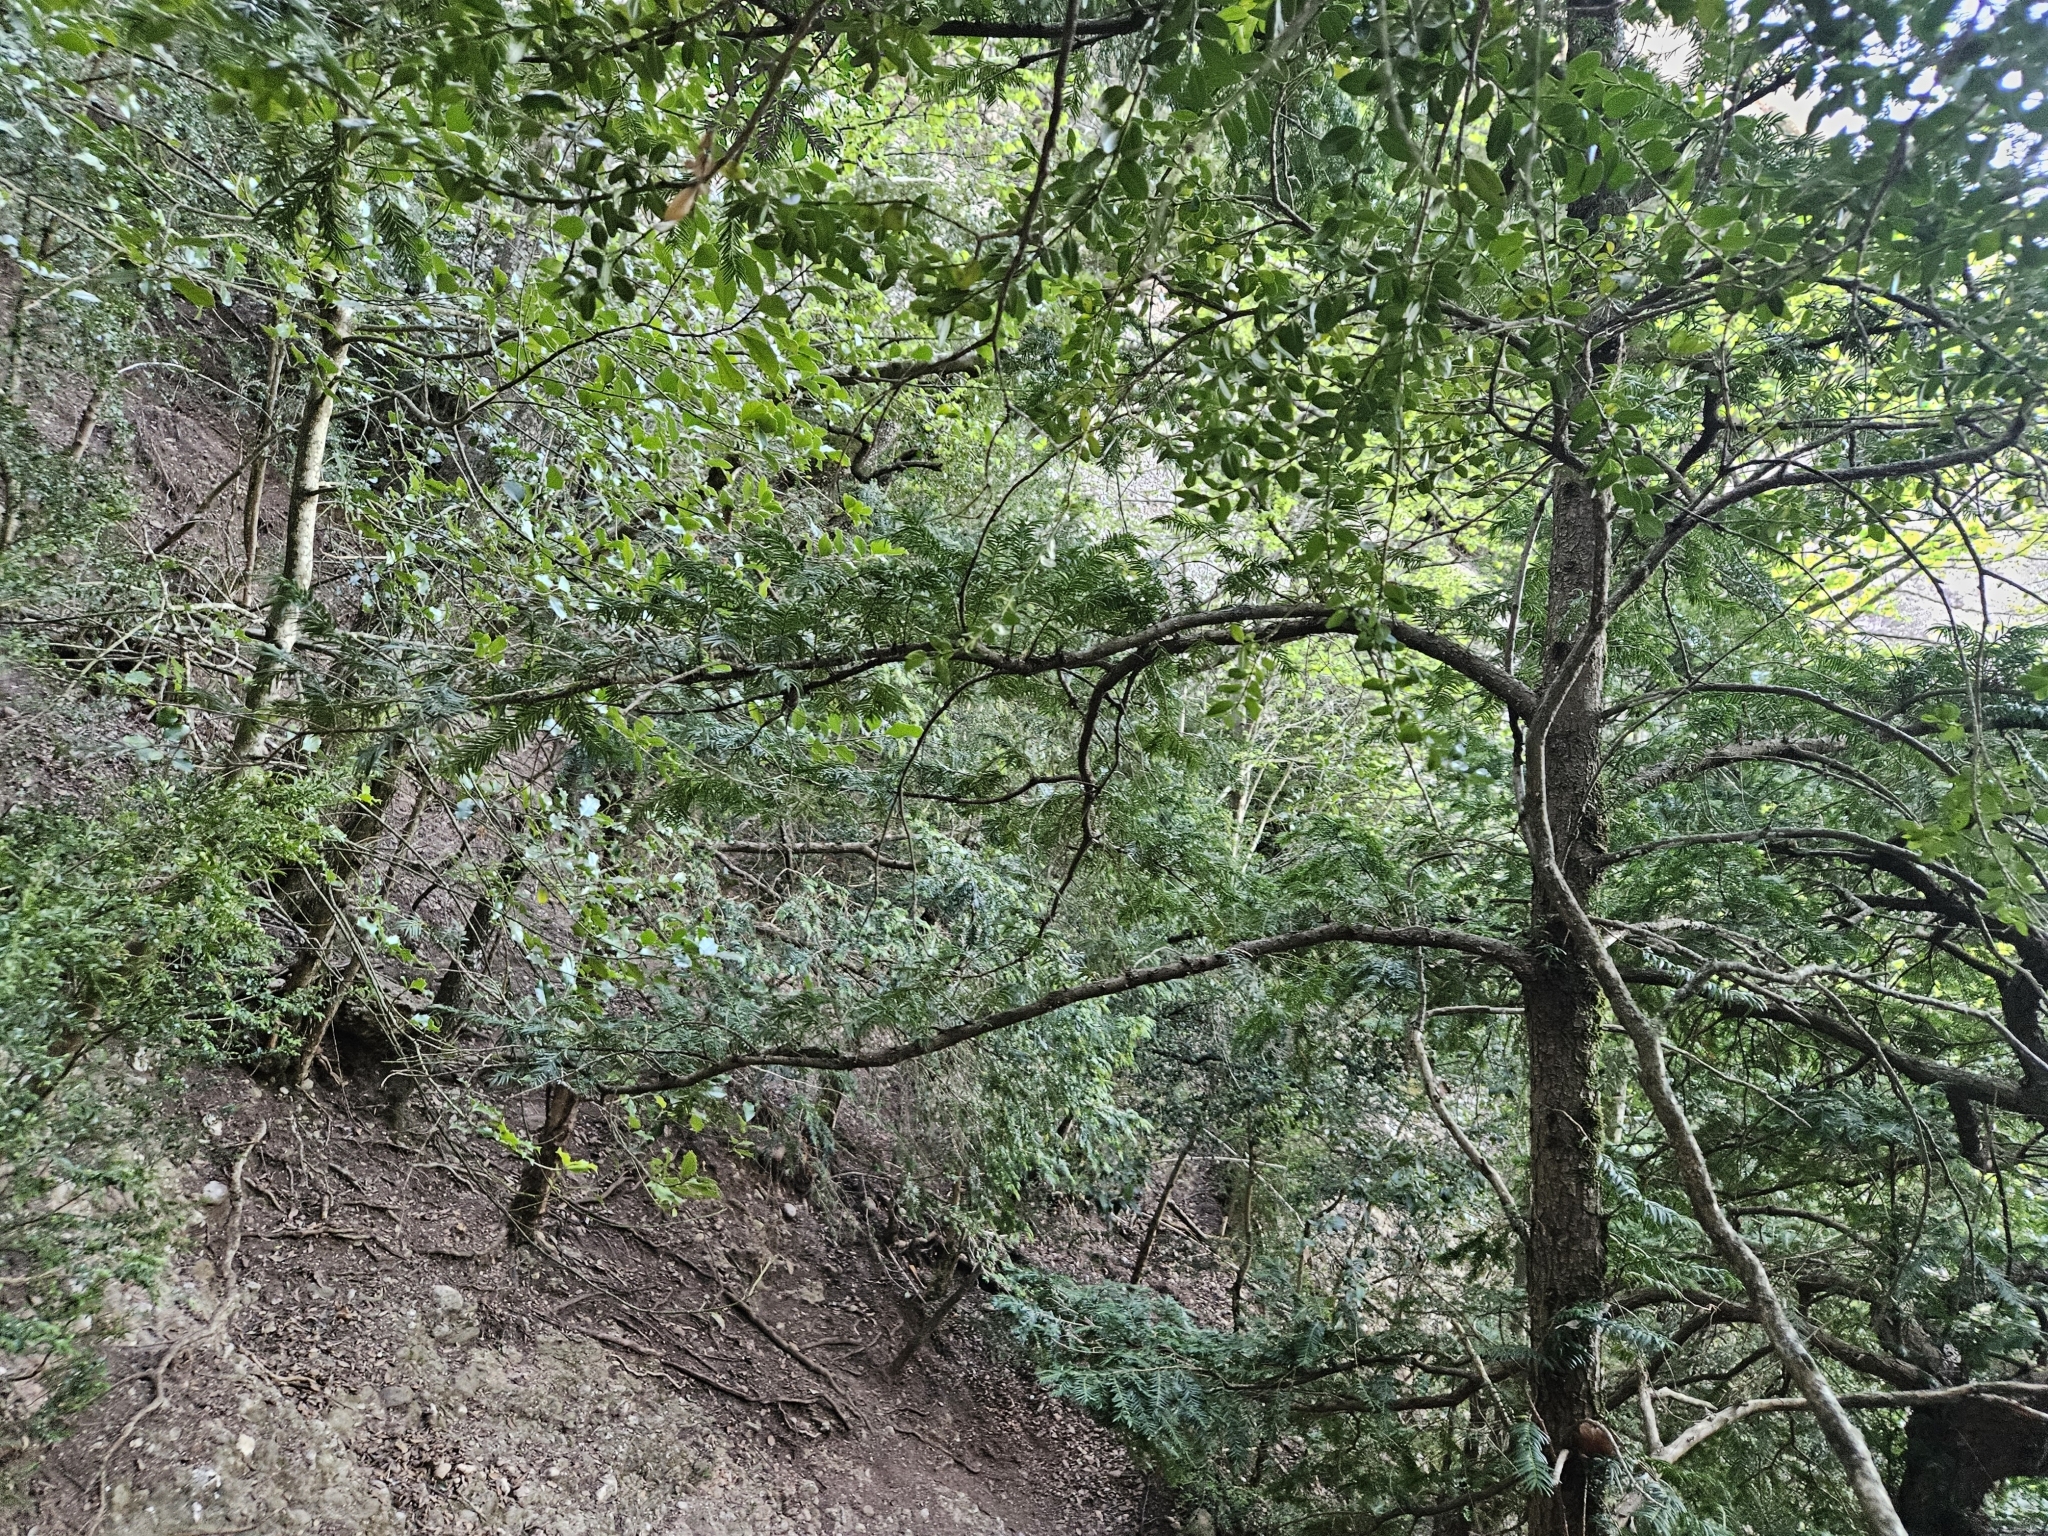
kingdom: Plantae
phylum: Tracheophyta
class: Pinopsida
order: Pinales
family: Taxaceae
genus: Taxus
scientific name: Taxus baccata
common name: Yew
